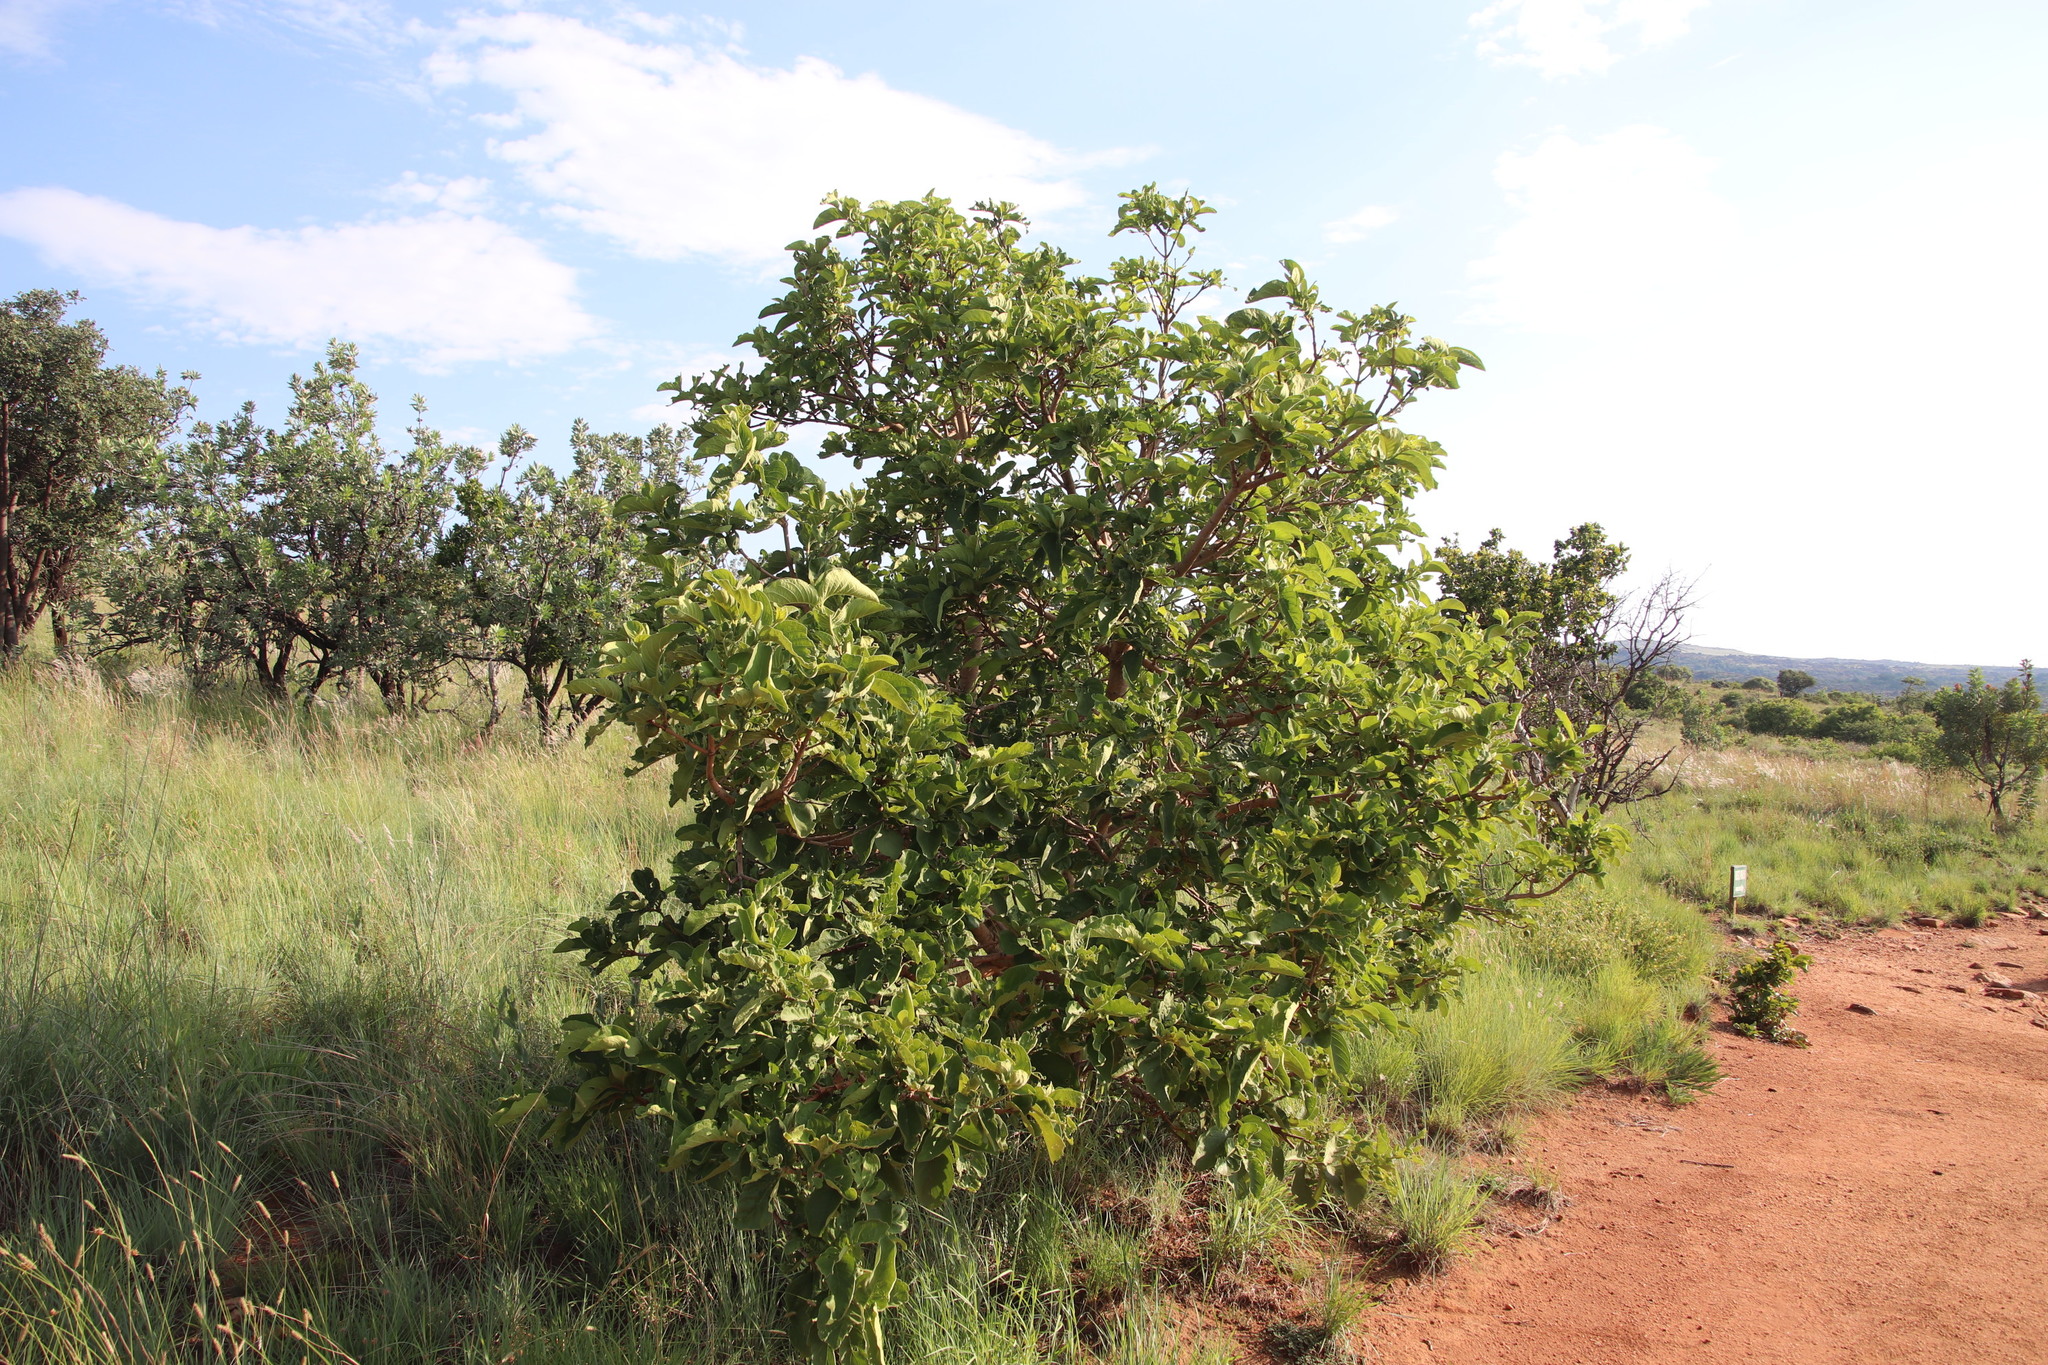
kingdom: Plantae
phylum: Tracheophyta
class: Magnoliopsida
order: Gentianales
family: Rubiaceae
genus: Vangueria
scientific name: Vangueria infausta
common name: Medlar
